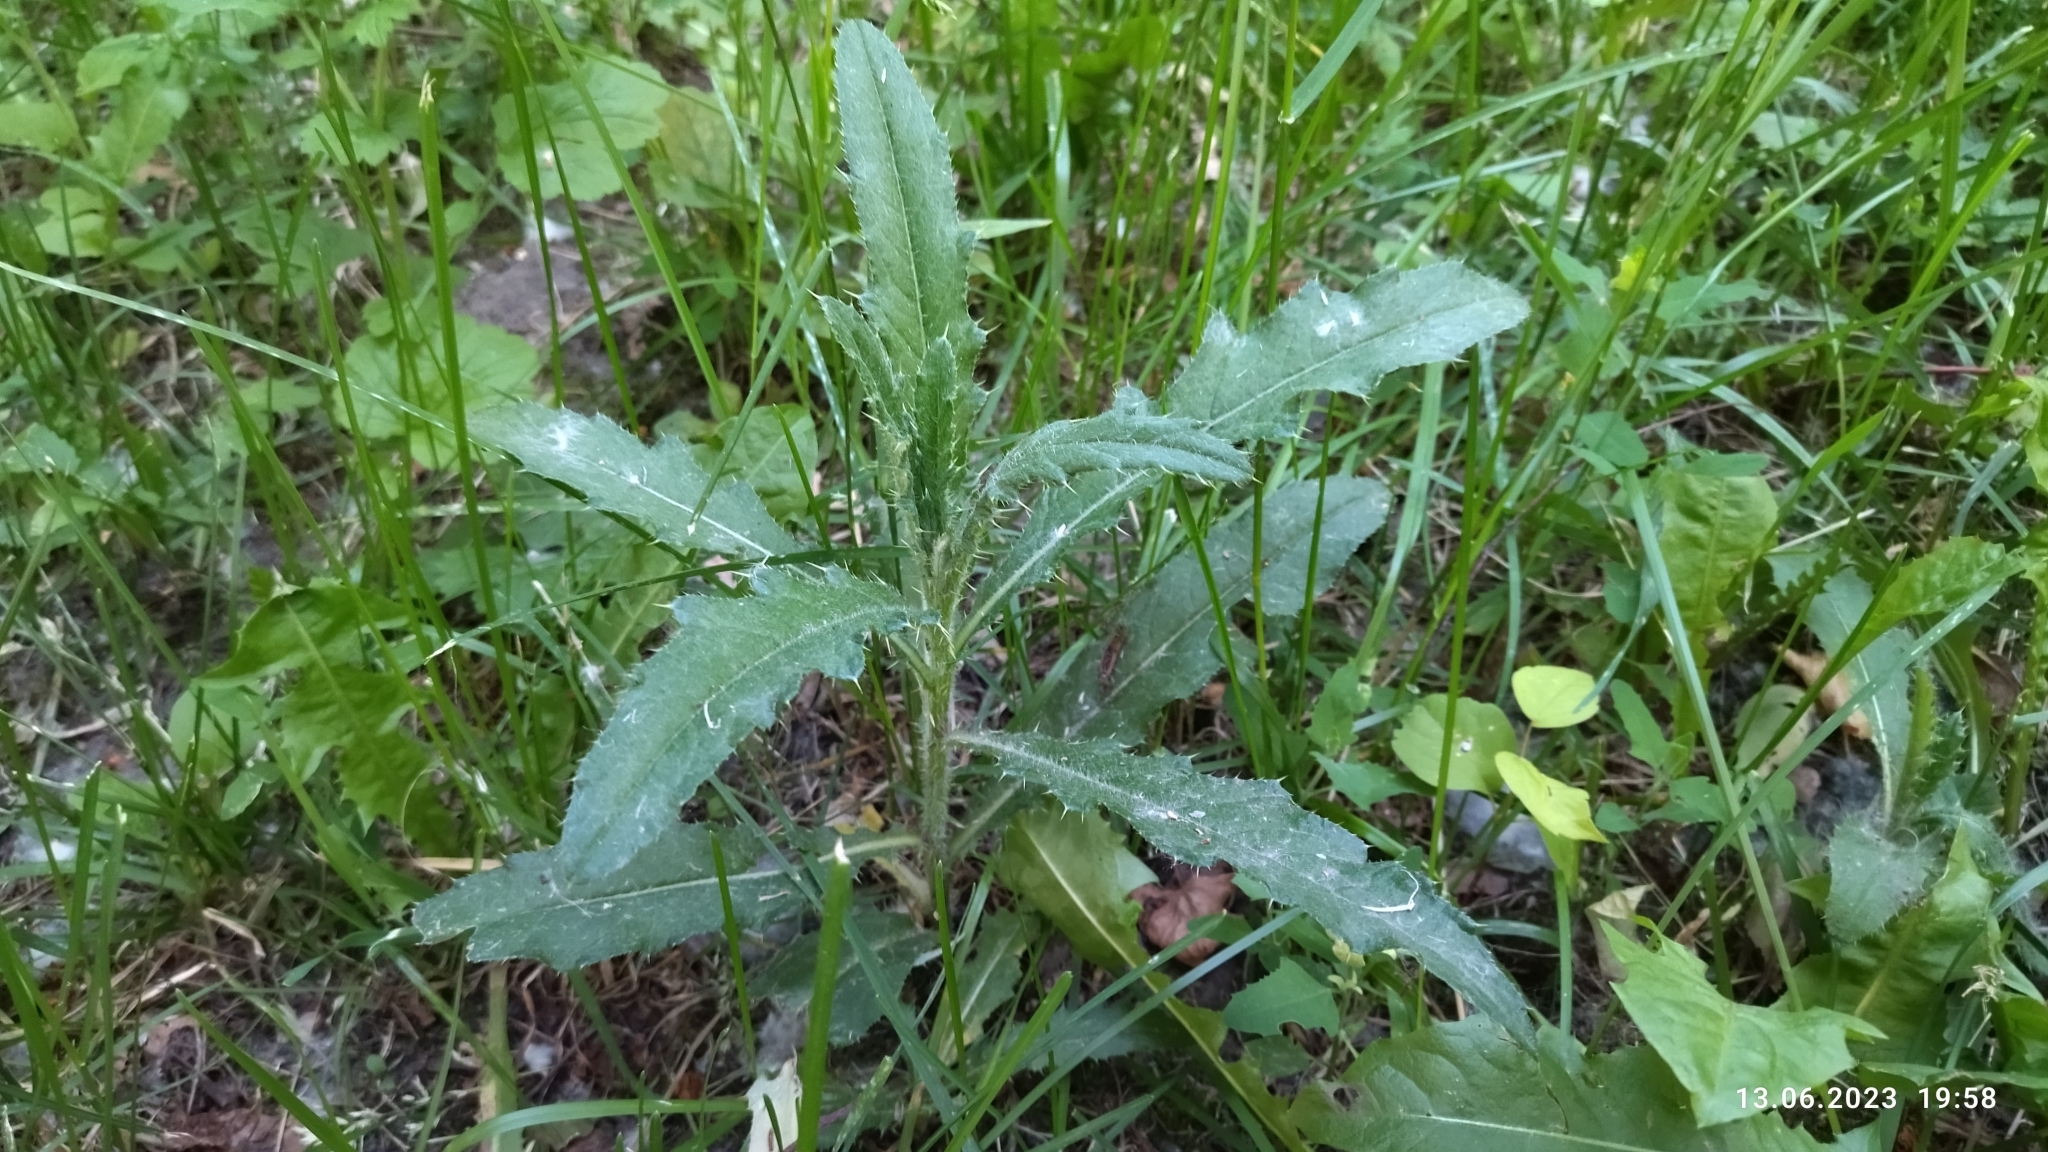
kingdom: Plantae
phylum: Tracheophyta
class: Magnoliopsida
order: Asterales
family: Asteraceae
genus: Cirsium
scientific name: Cirsium arvense
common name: Creeping thistle
